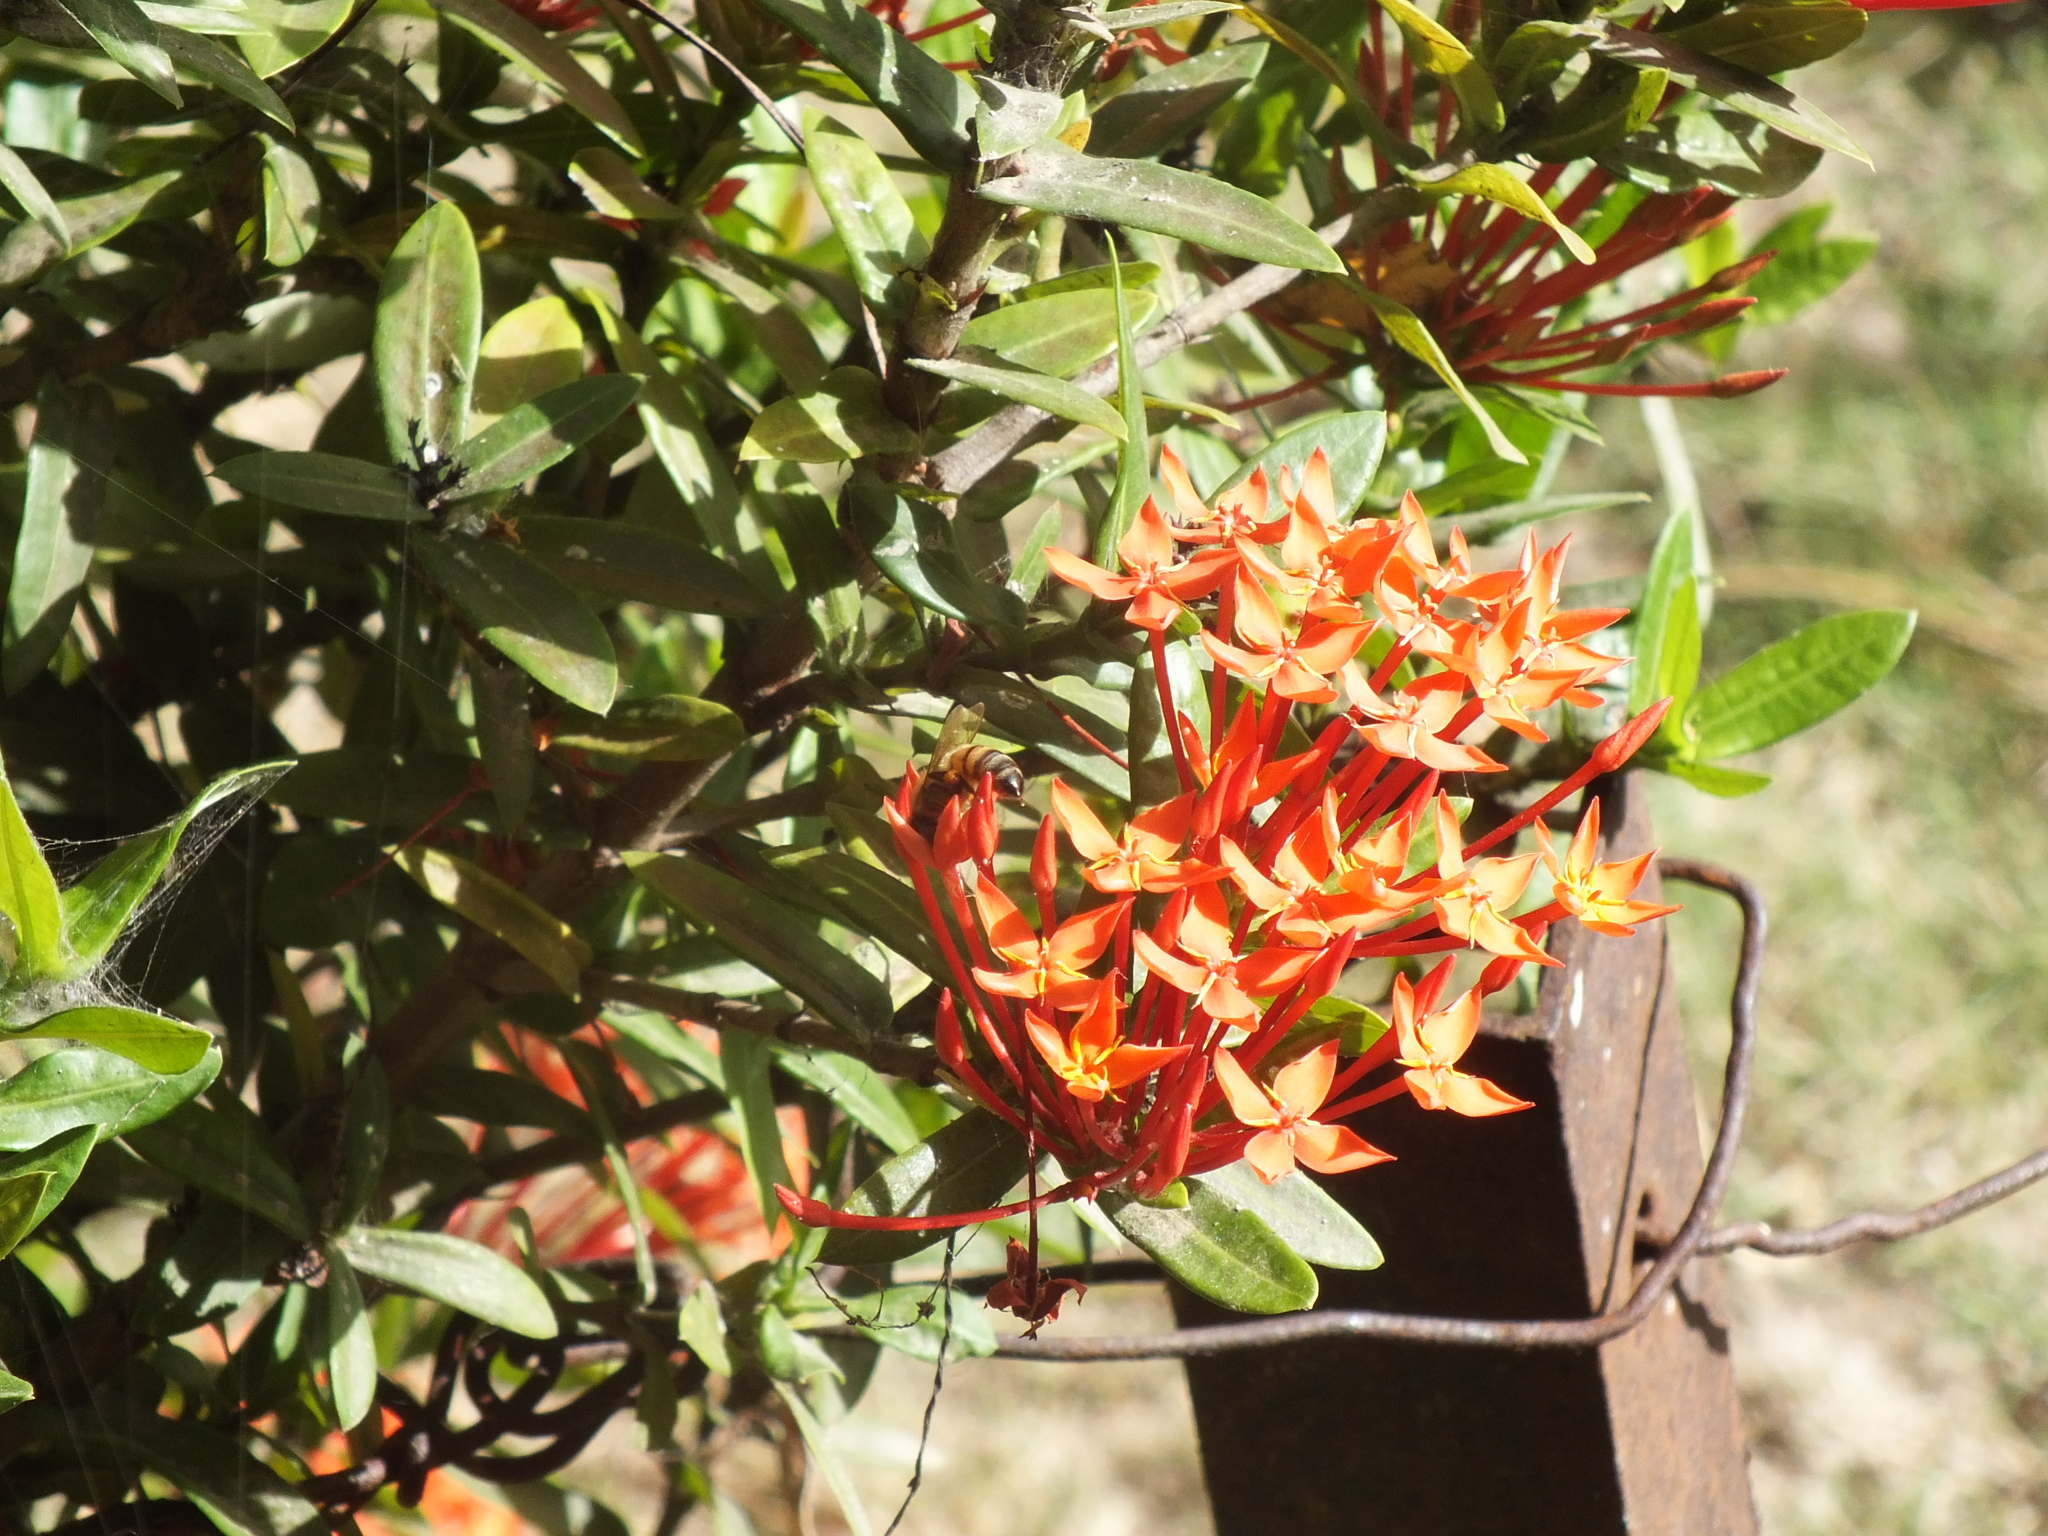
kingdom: Animalia
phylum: Arthropoda
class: Insecta
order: Hymenoptera
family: Apidae
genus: Apis
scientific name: Apis mellifera
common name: Honey bee
